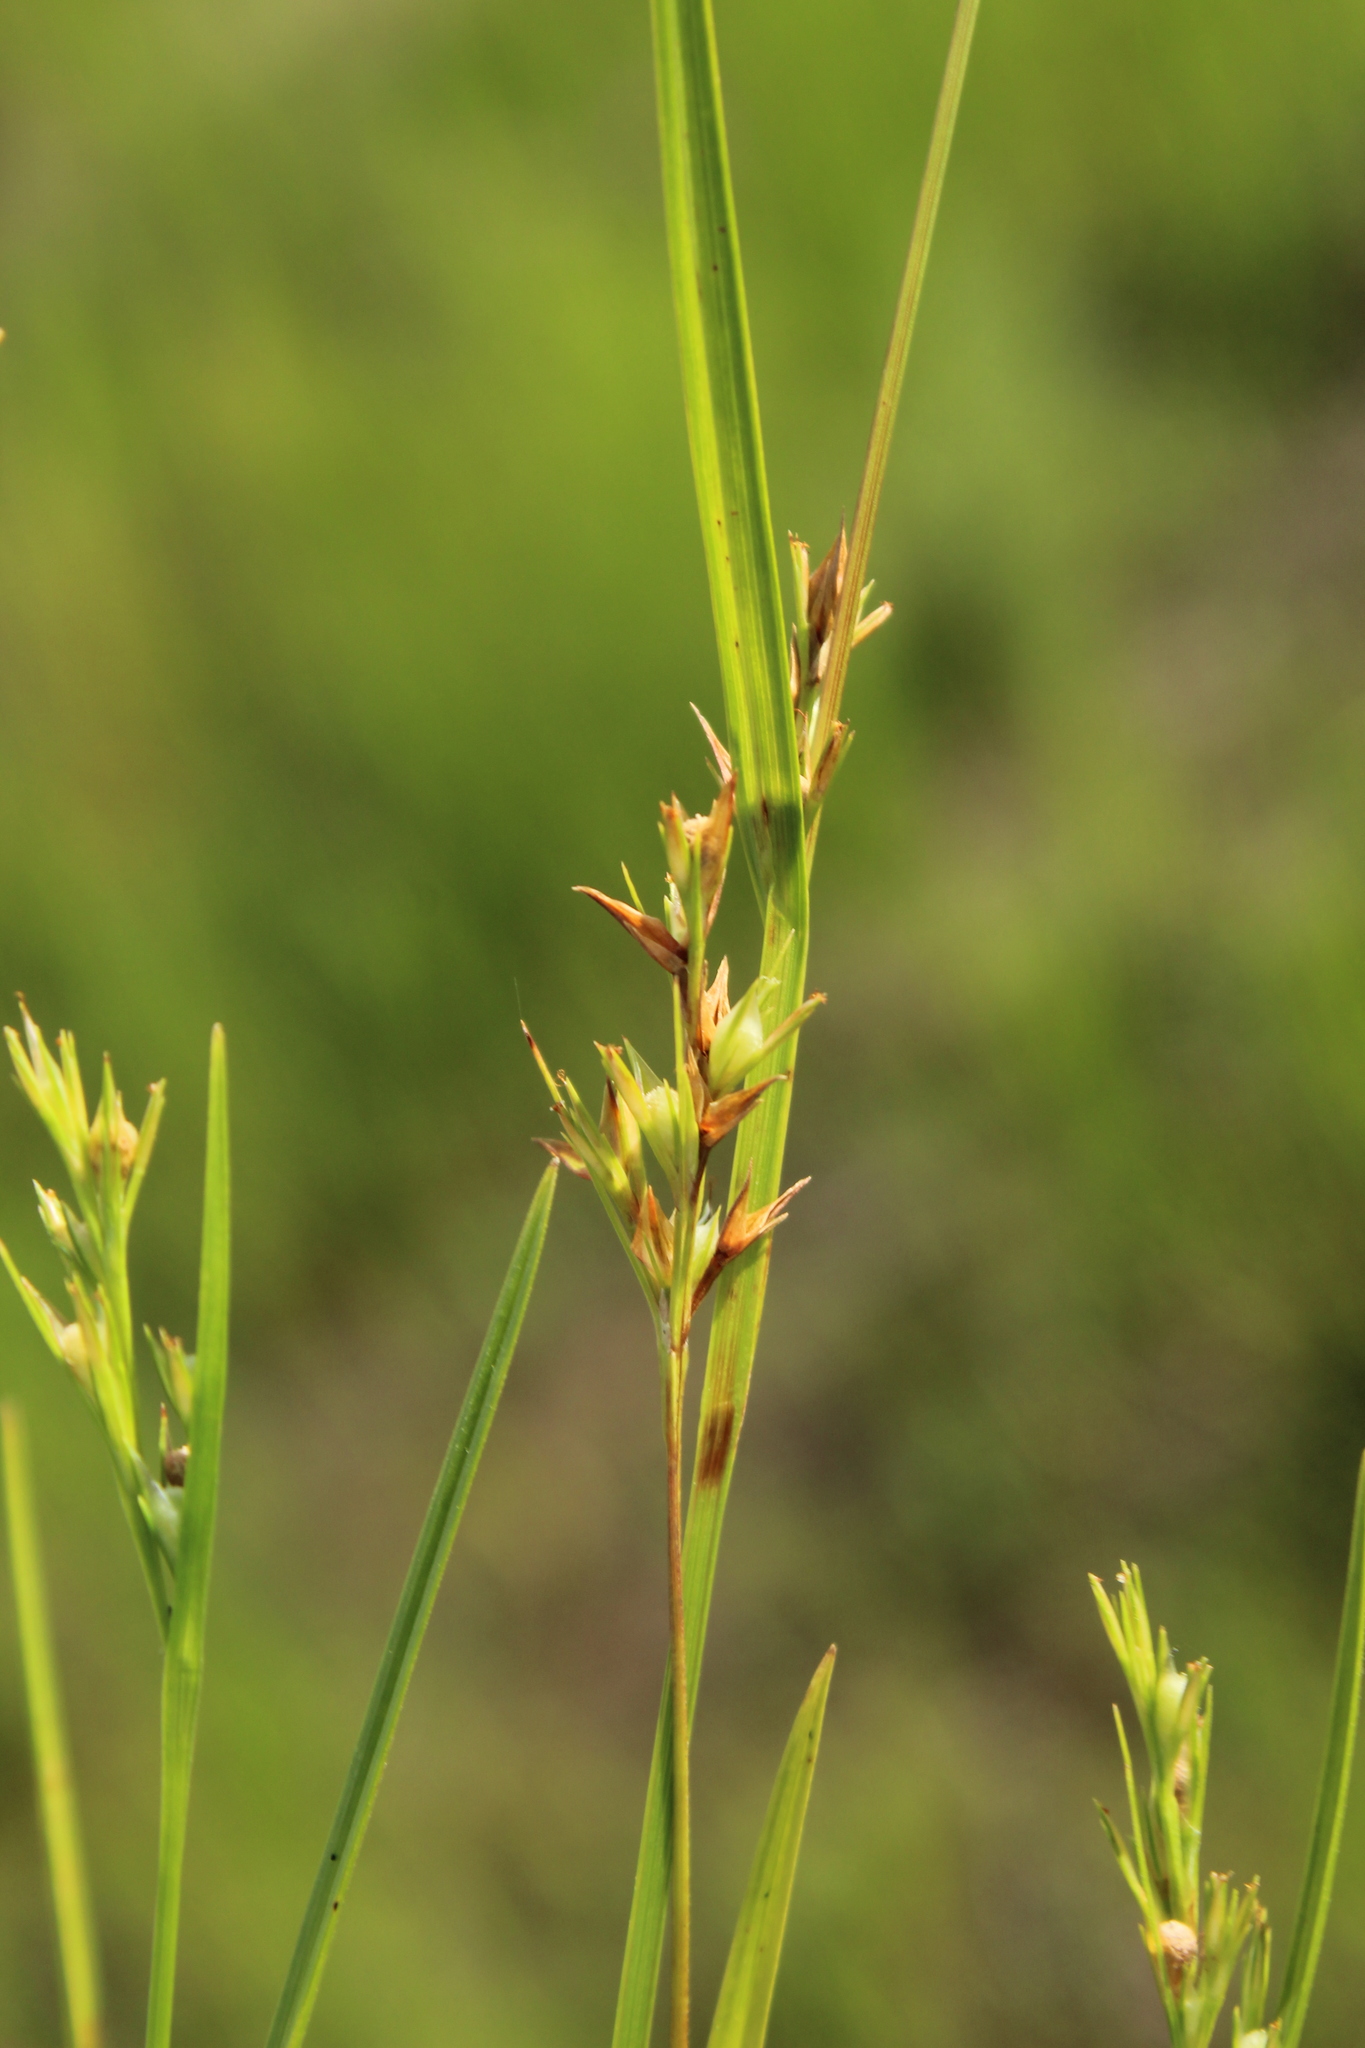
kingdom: Plantae
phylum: Tracheophyta
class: Liliopsida
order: Poales
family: Cyperaceae
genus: Scleria
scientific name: Scleria muehlenbergii
